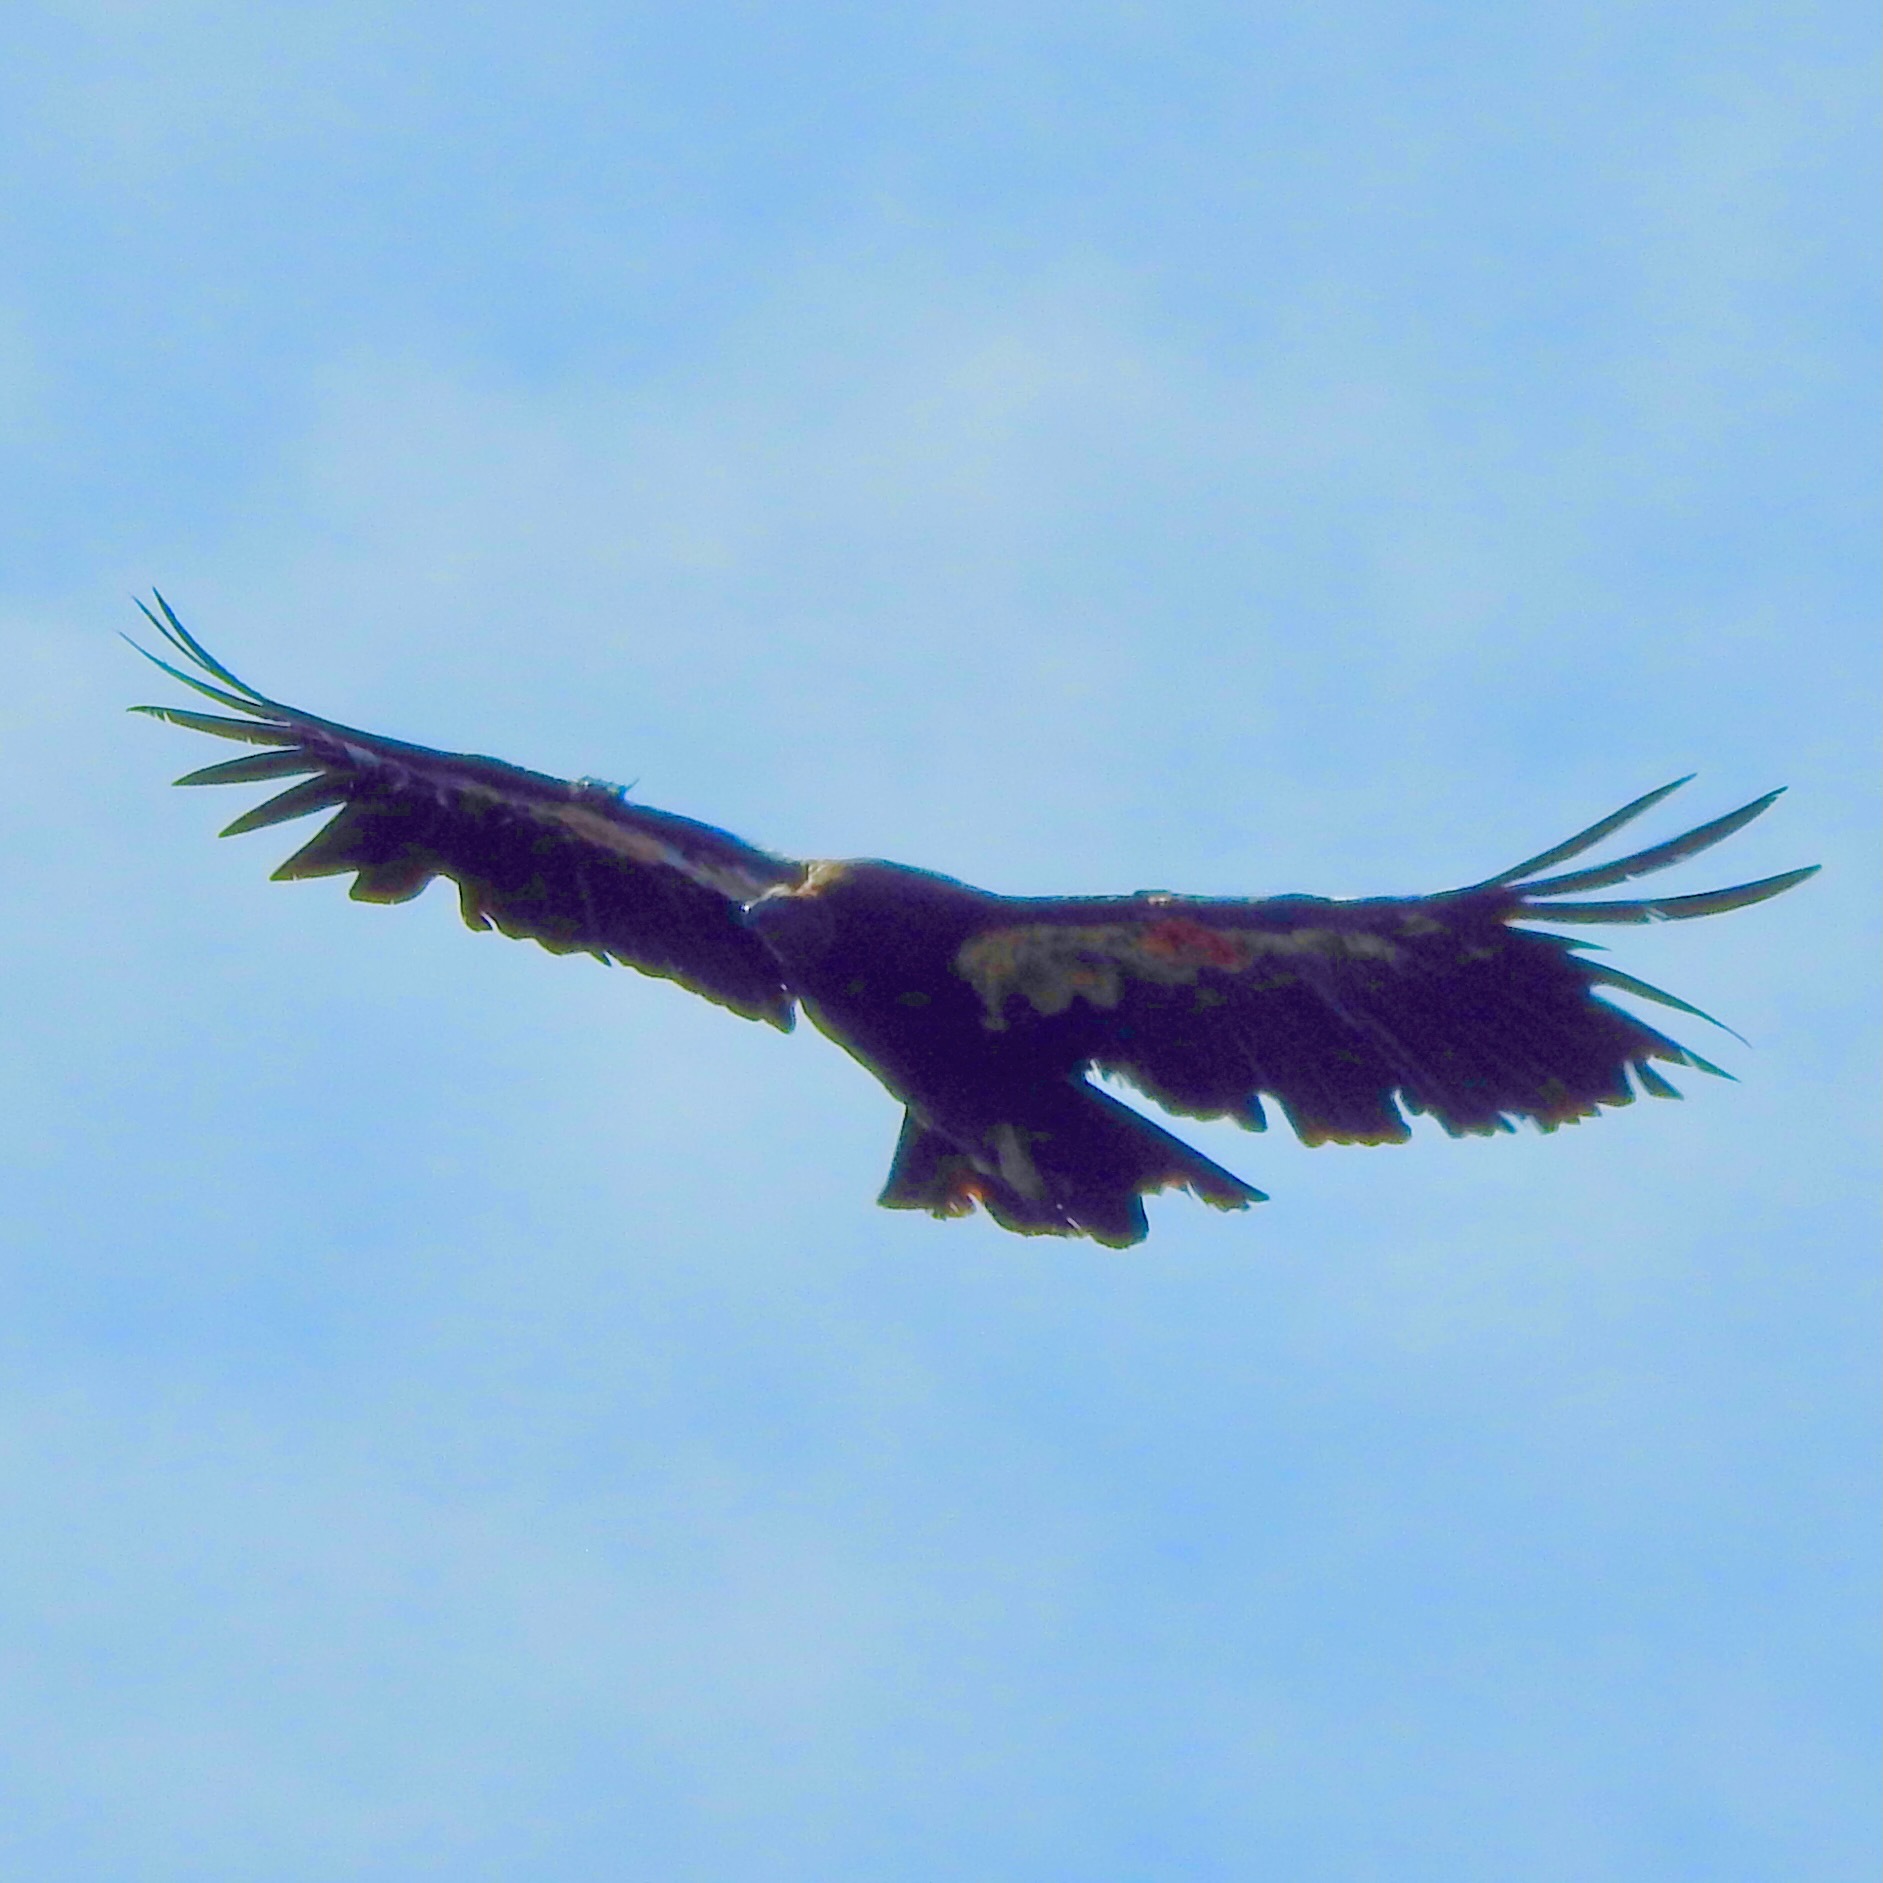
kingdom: Animalia
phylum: Chordata
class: Aves
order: Accipitriformes
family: Cathartidae
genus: Gymnogyps
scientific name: Gymnogyps californianus
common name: California condor
